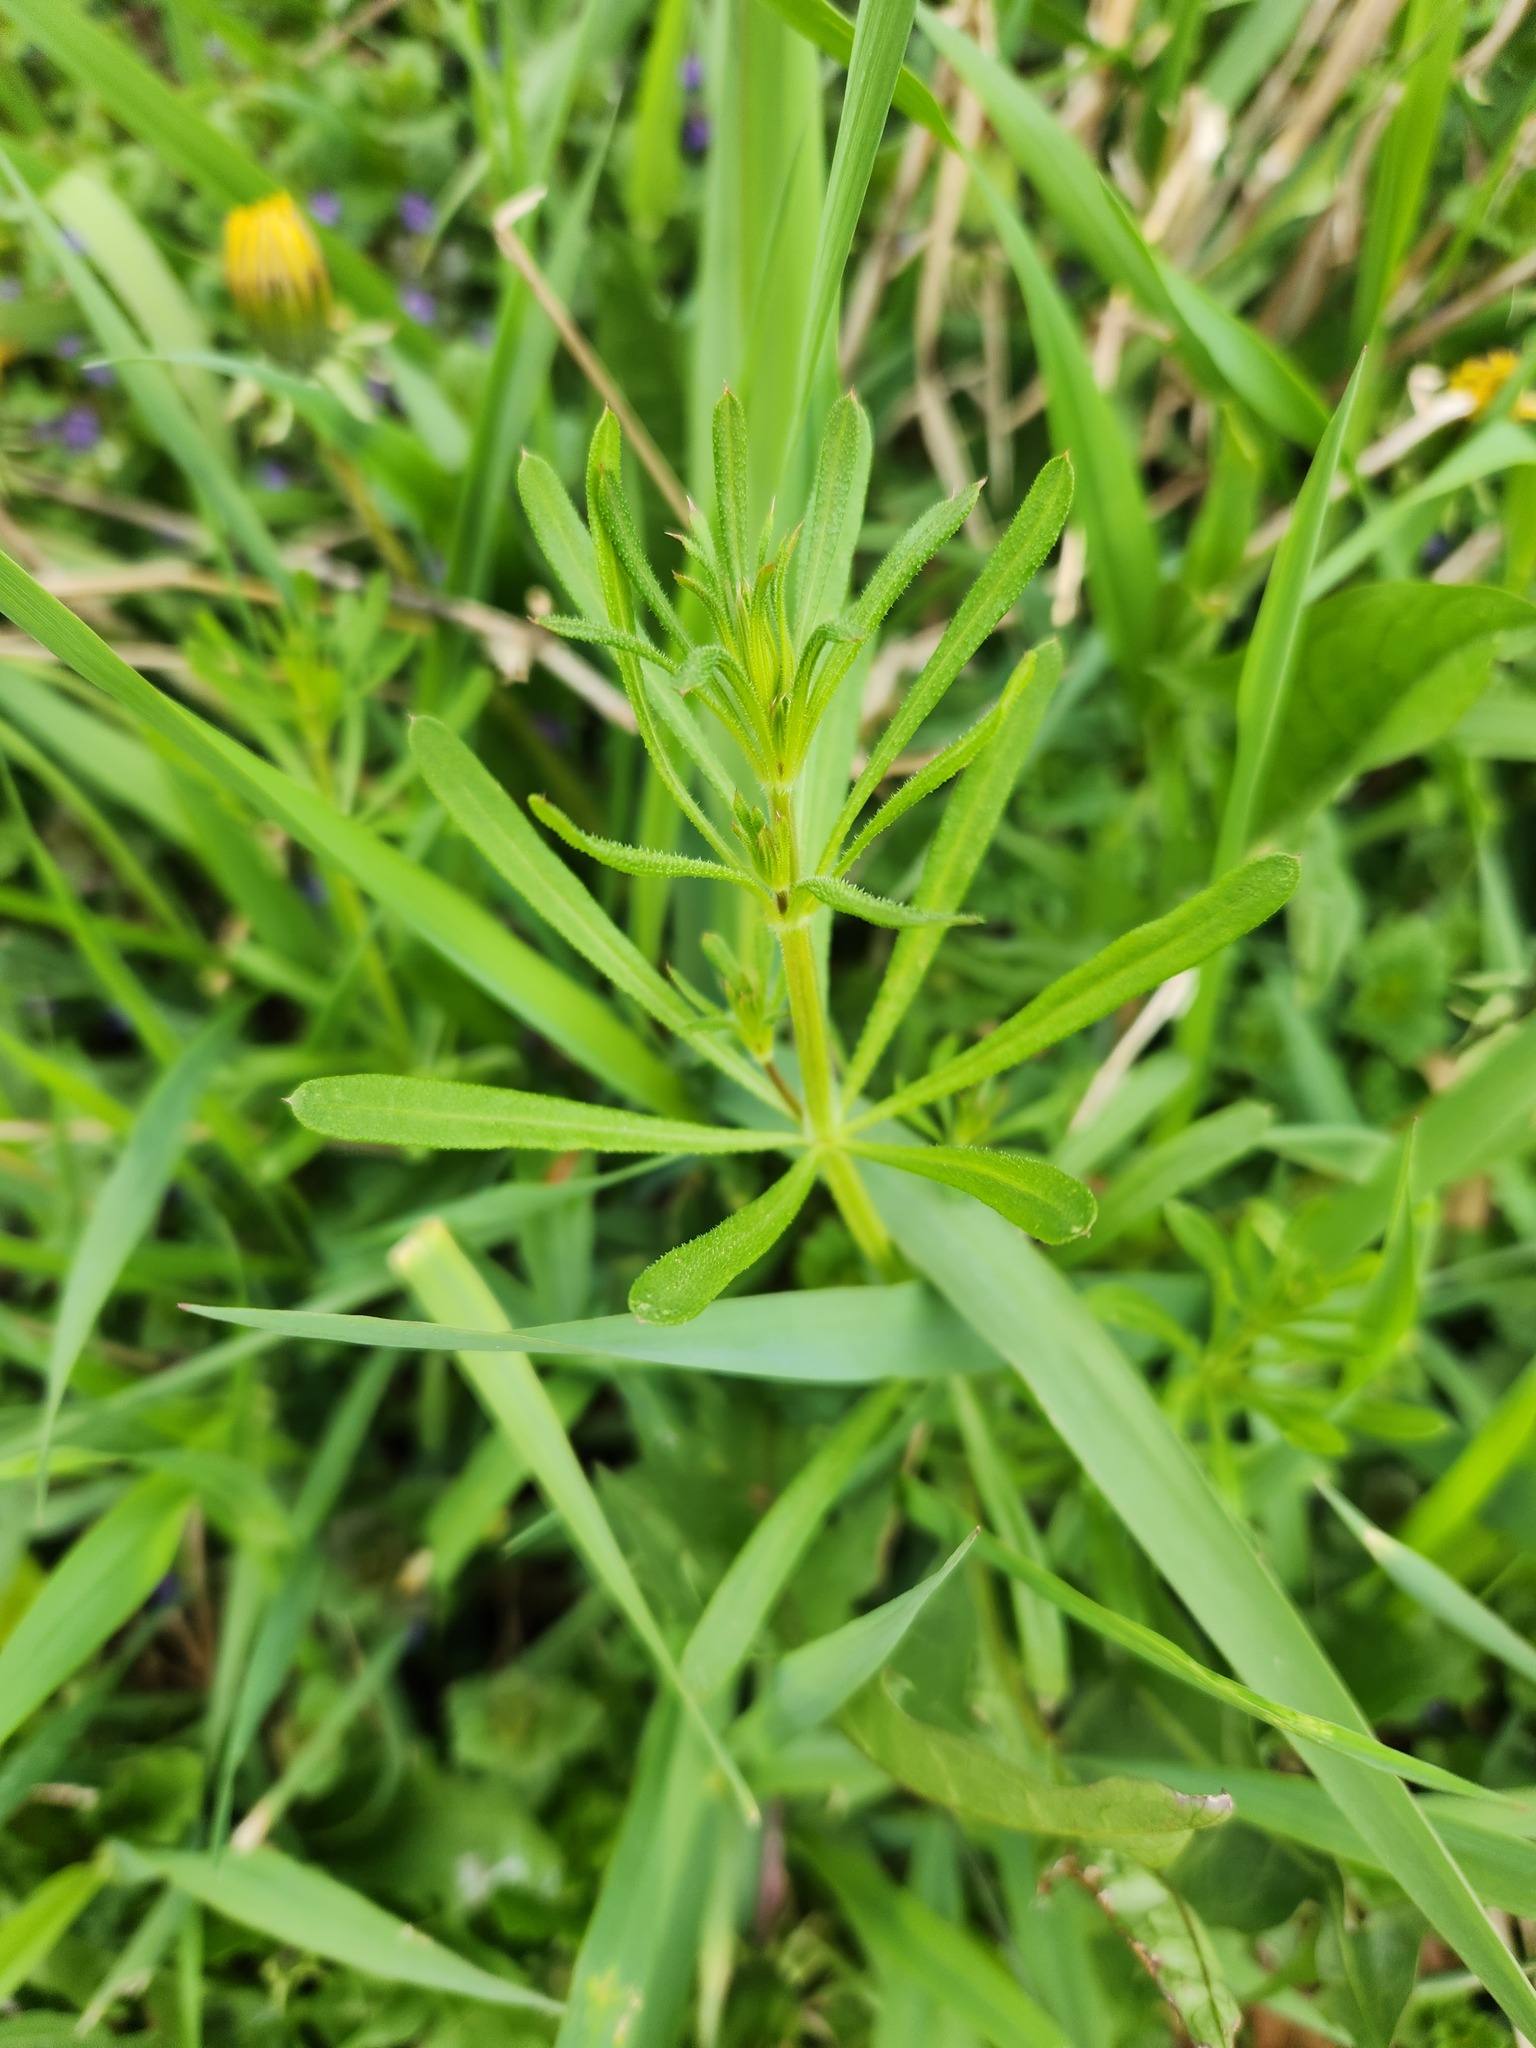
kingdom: Plantae
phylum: Tracheophyta
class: Magnoliopsida
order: Gentianales
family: Rubiaceae
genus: Galium
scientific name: Galium aparine
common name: Cleavers
